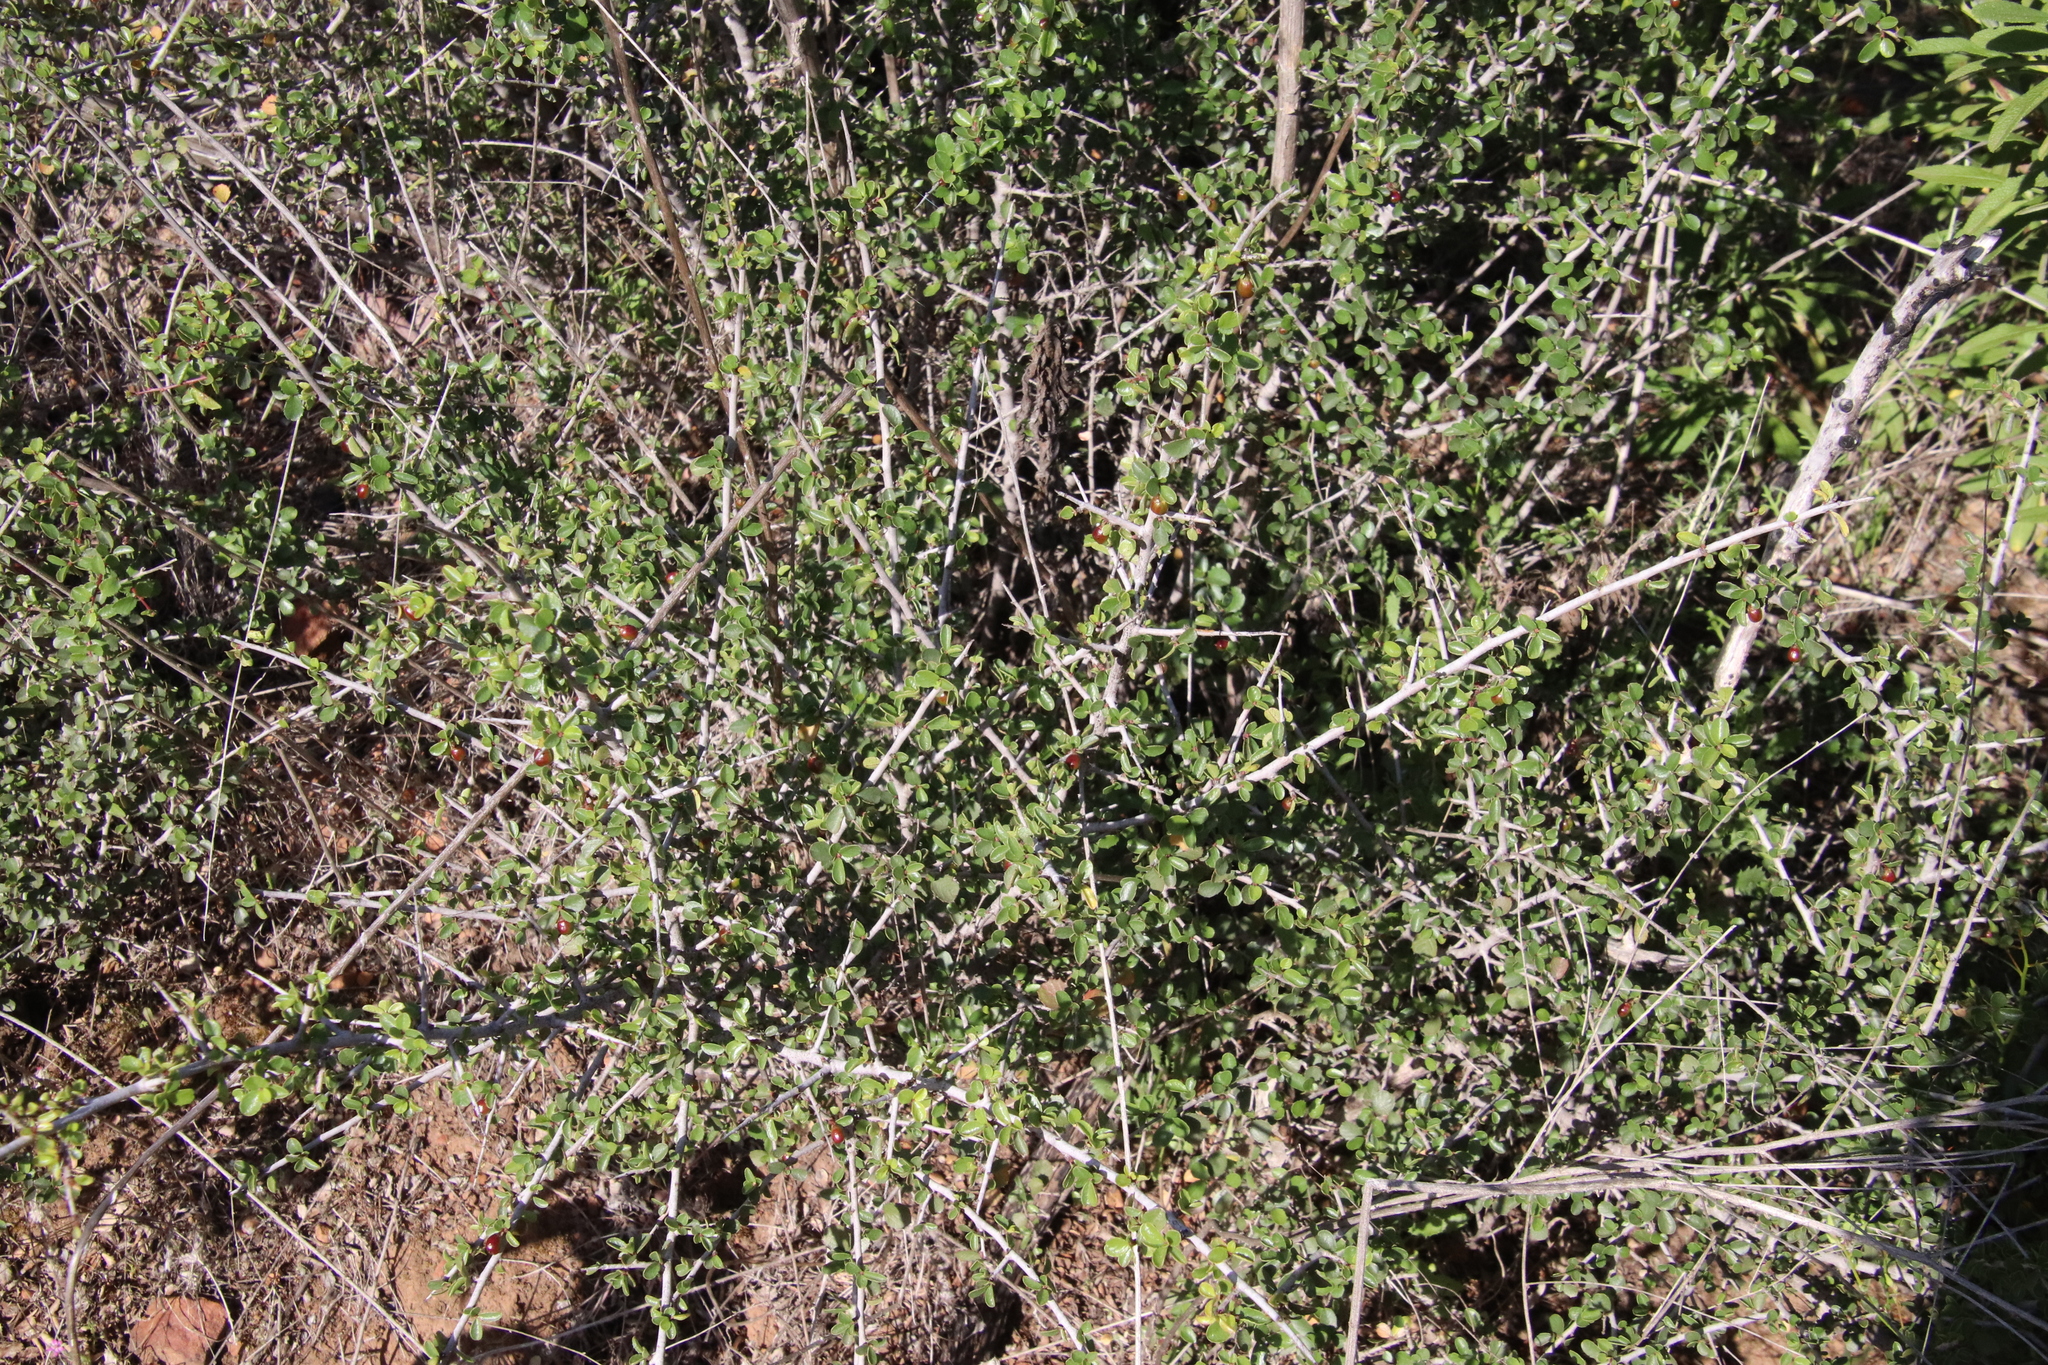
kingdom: Plantae
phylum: Tracheophyta
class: Magnoliopsida
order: Rosales
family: Rhamnaceae
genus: Endotropis
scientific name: Endotropis crocea
